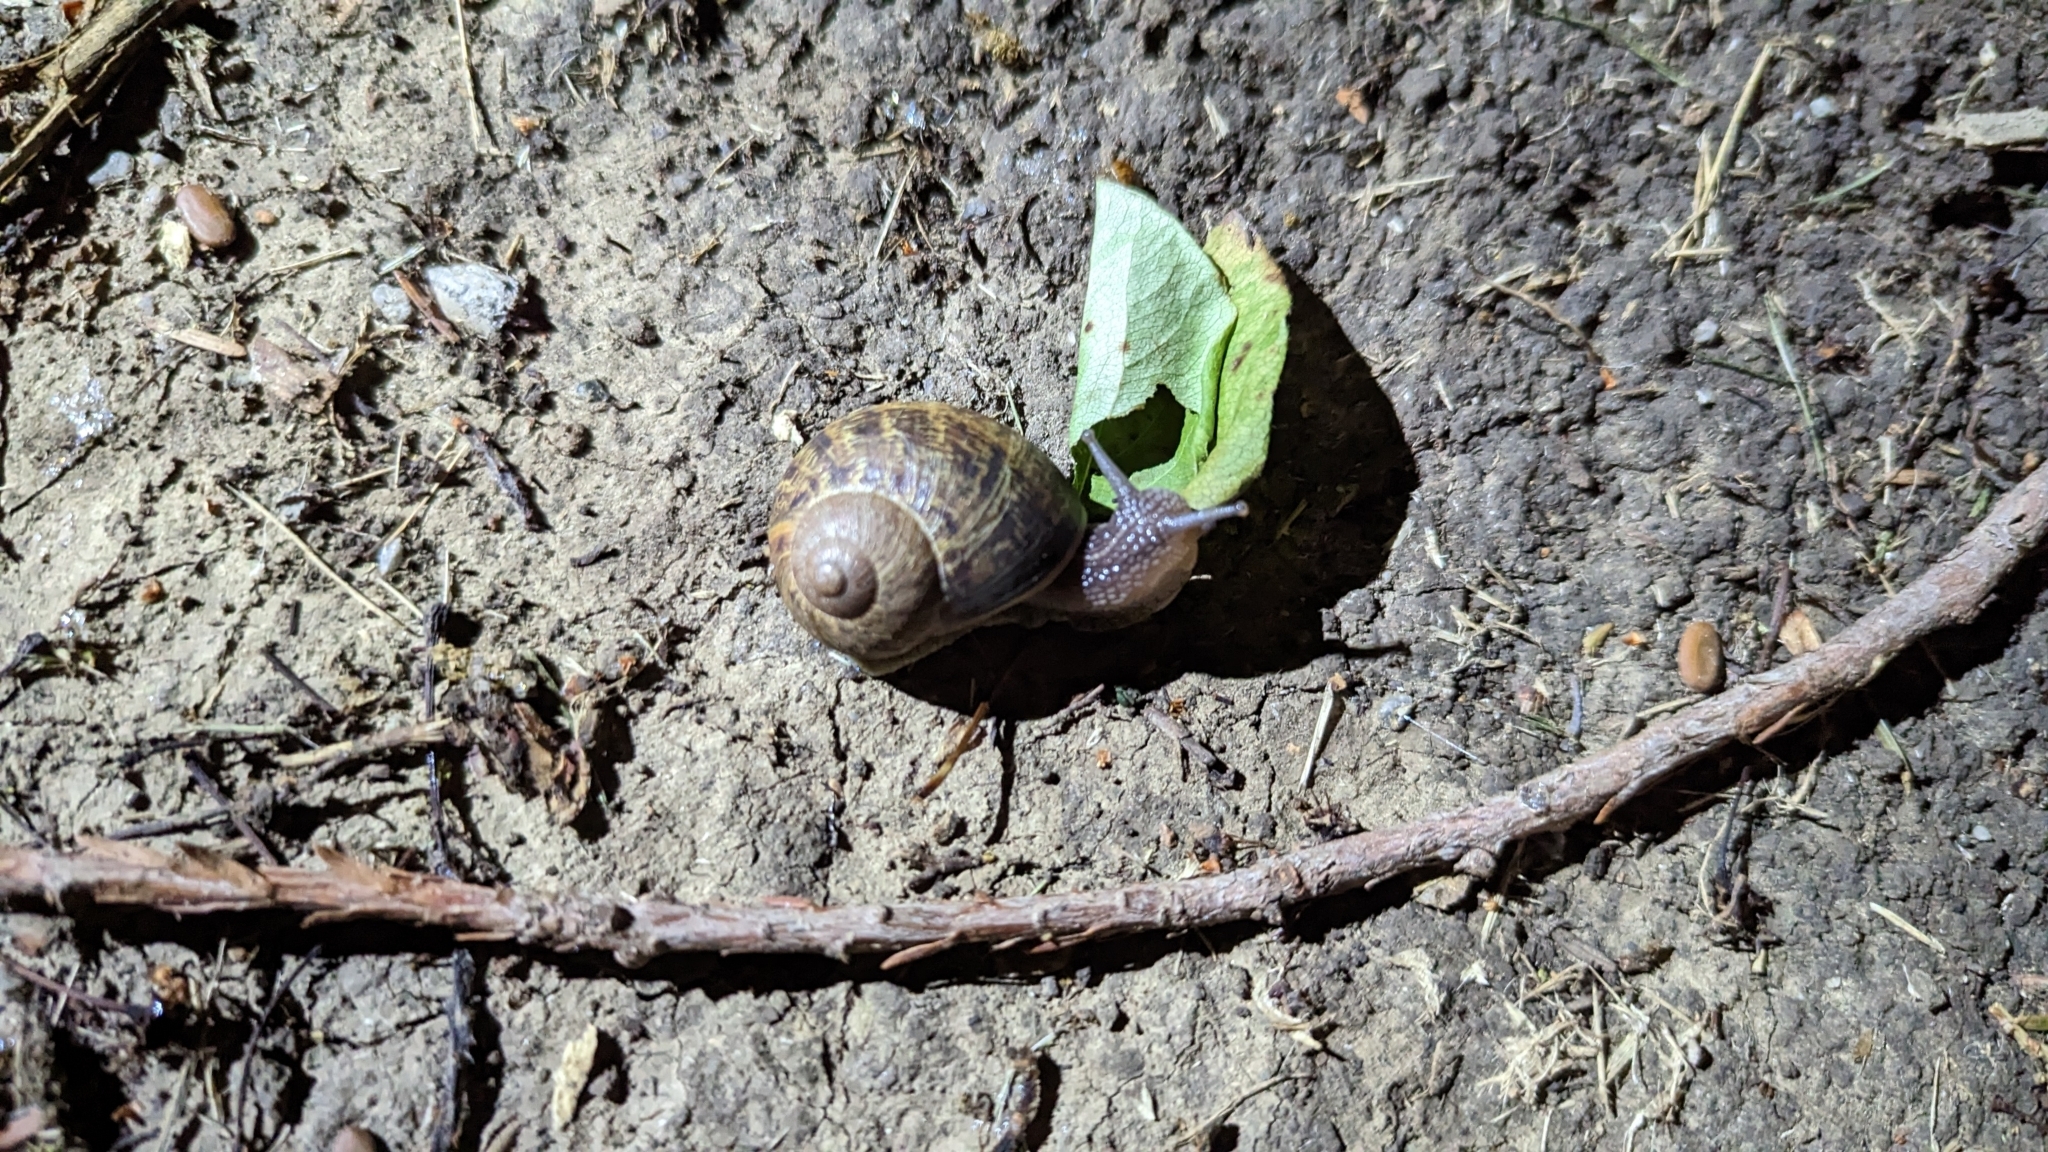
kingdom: Animalia
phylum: Mollusca
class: Gastropoda
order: Stylommatophora
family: Helicidae
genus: Cornu
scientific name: Cornu aspersum
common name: Brown garden snail
